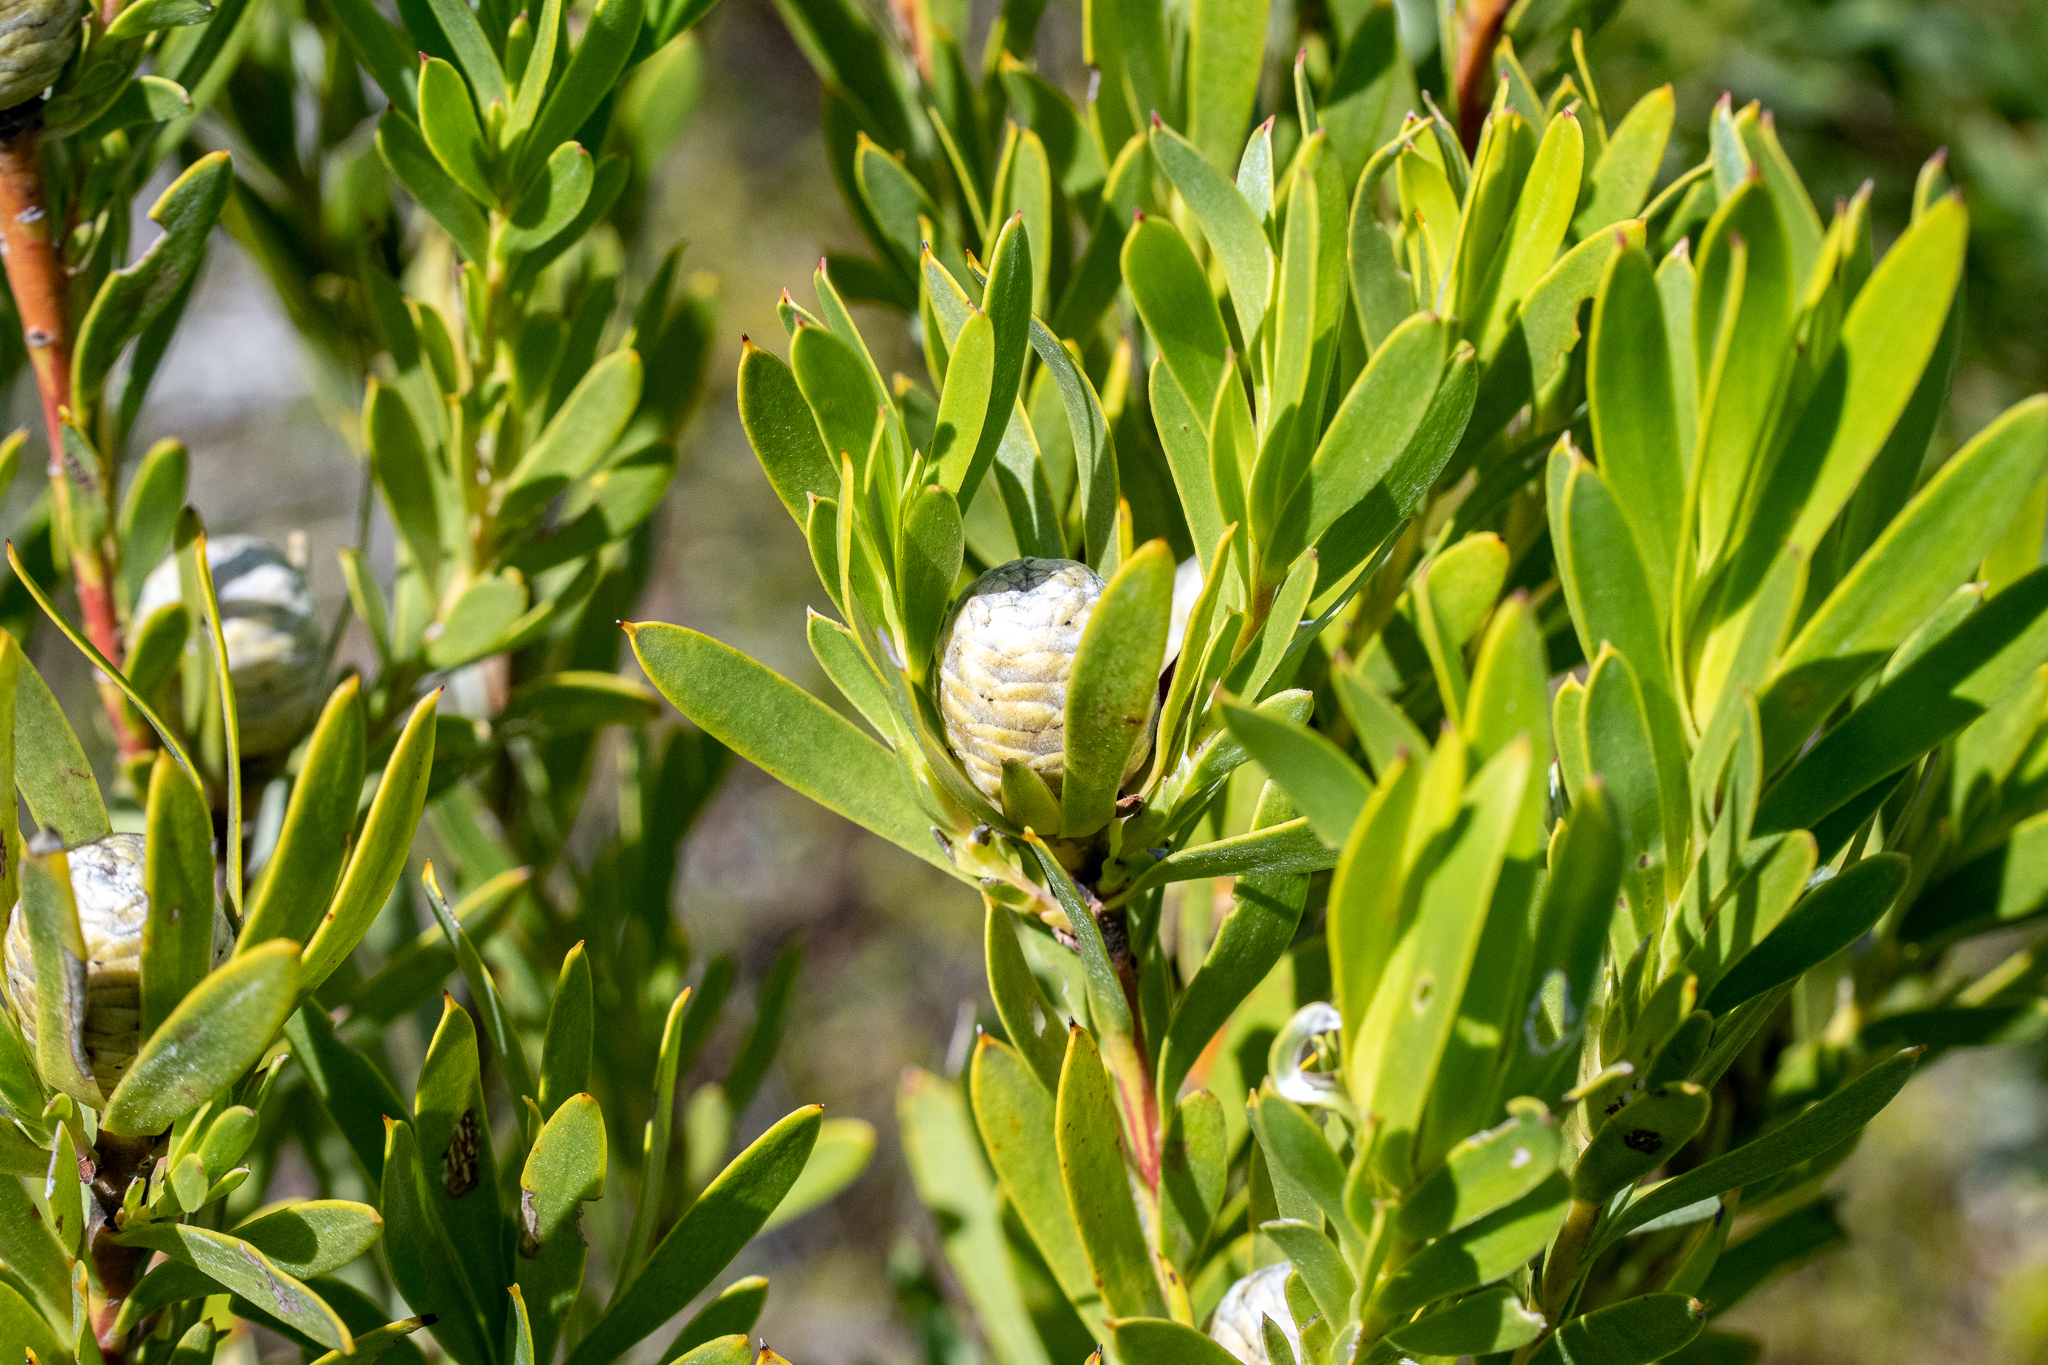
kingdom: Plantae
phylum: Tracheophyta
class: Magnoliopsida
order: Proteales
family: Proteaceae
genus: Leucadendron
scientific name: Leucadendron meridianum
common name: Limestone conebush
